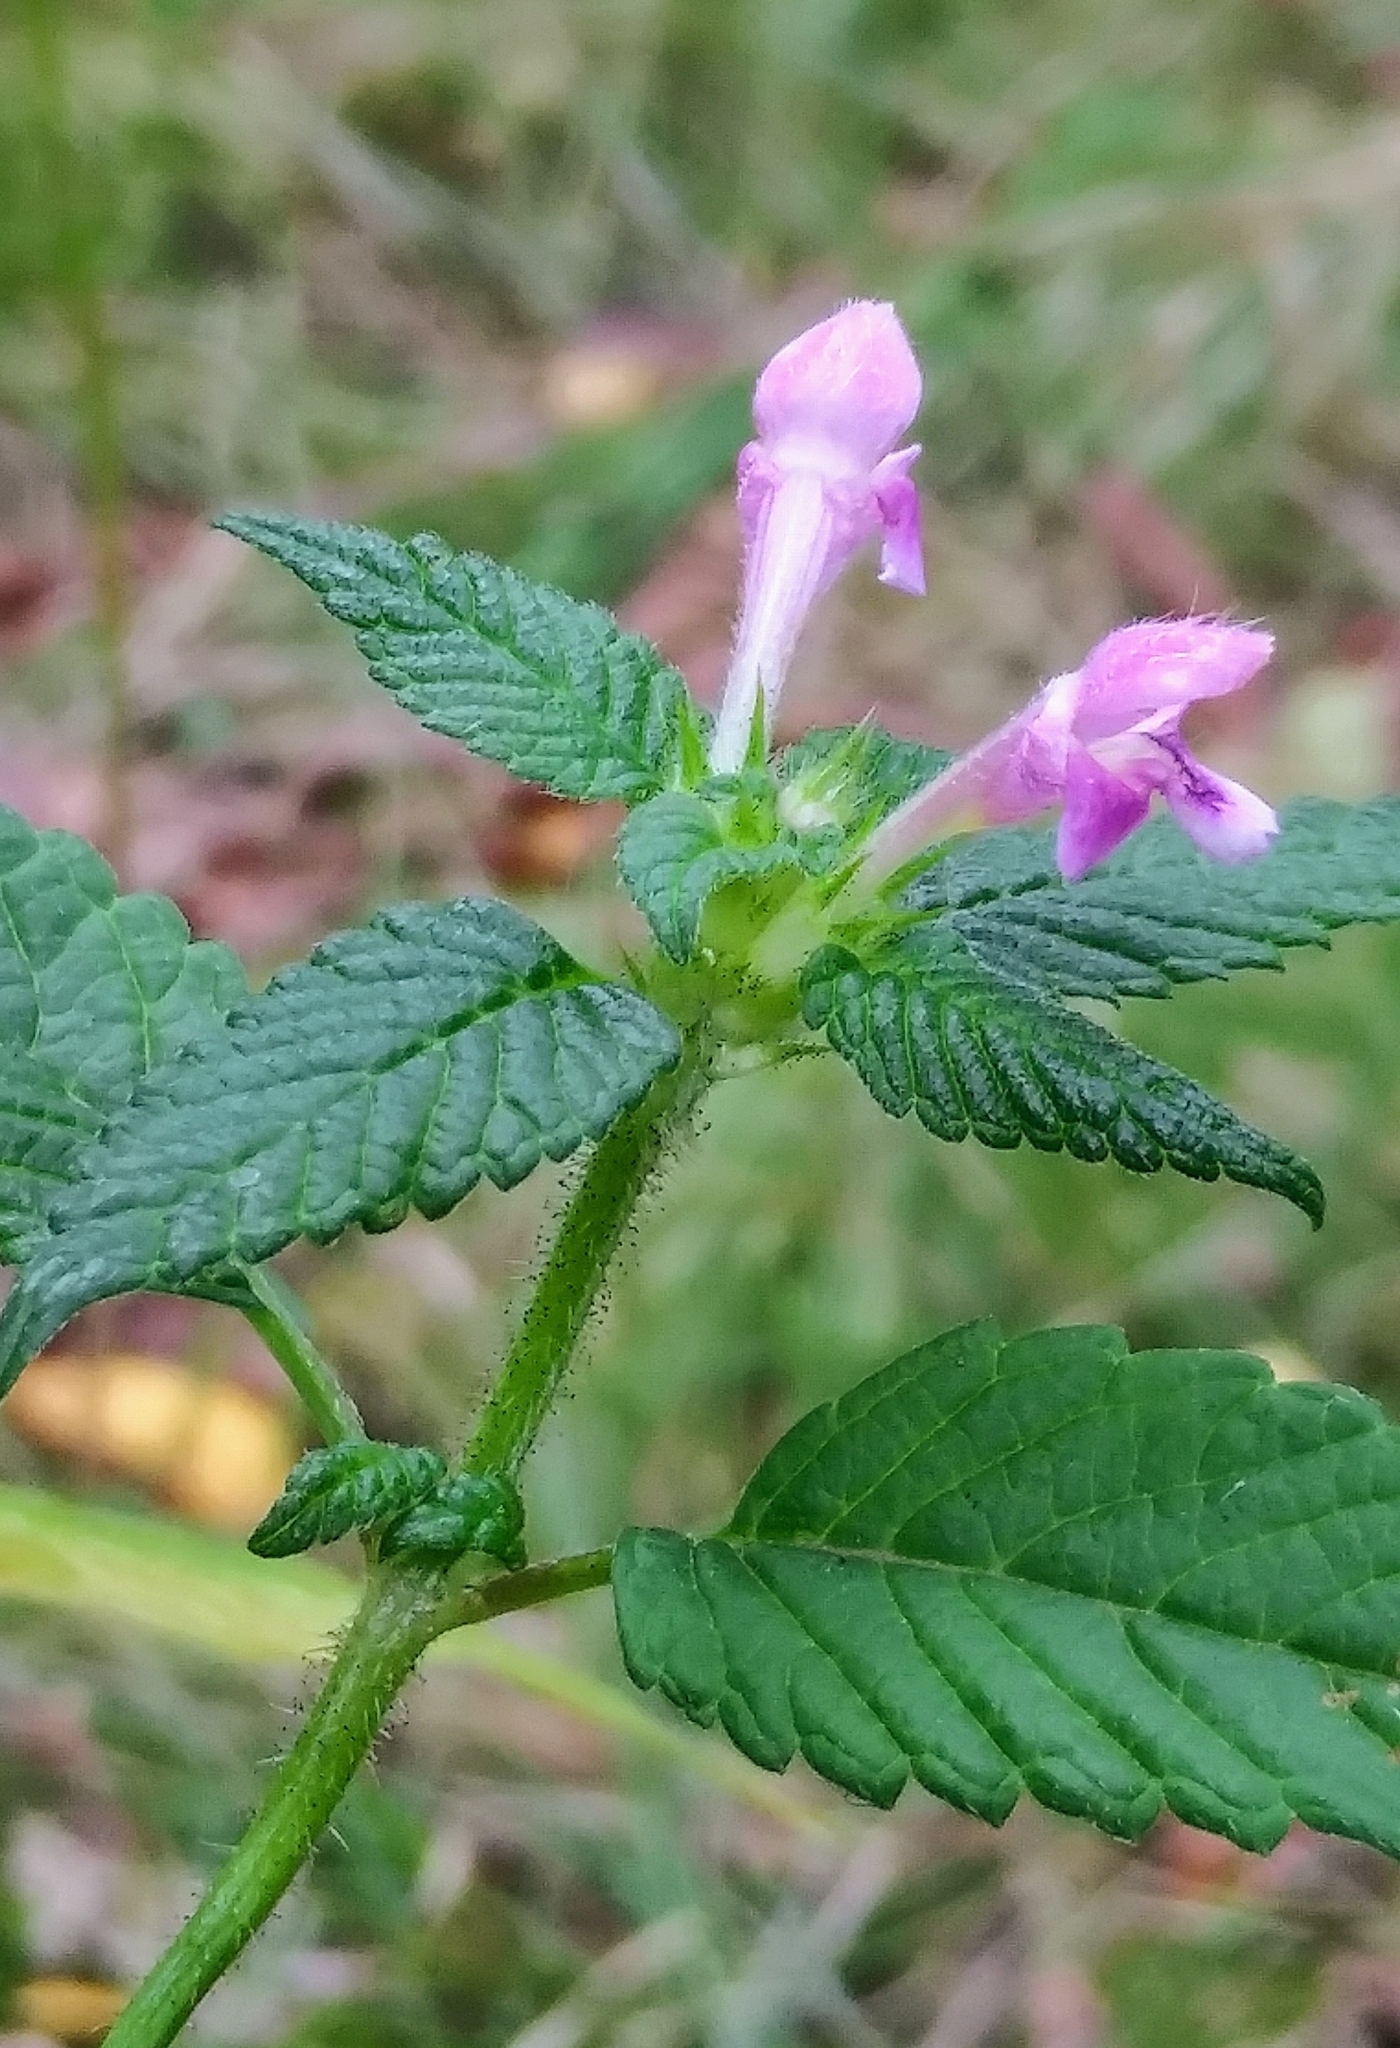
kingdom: Plantae
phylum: Tracheophyta
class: Magnoliopsida
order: Lamiales
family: Lamiaceae
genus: Galeopsis
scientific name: Galeopsis tetrahit
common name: Common hemp-nettle
